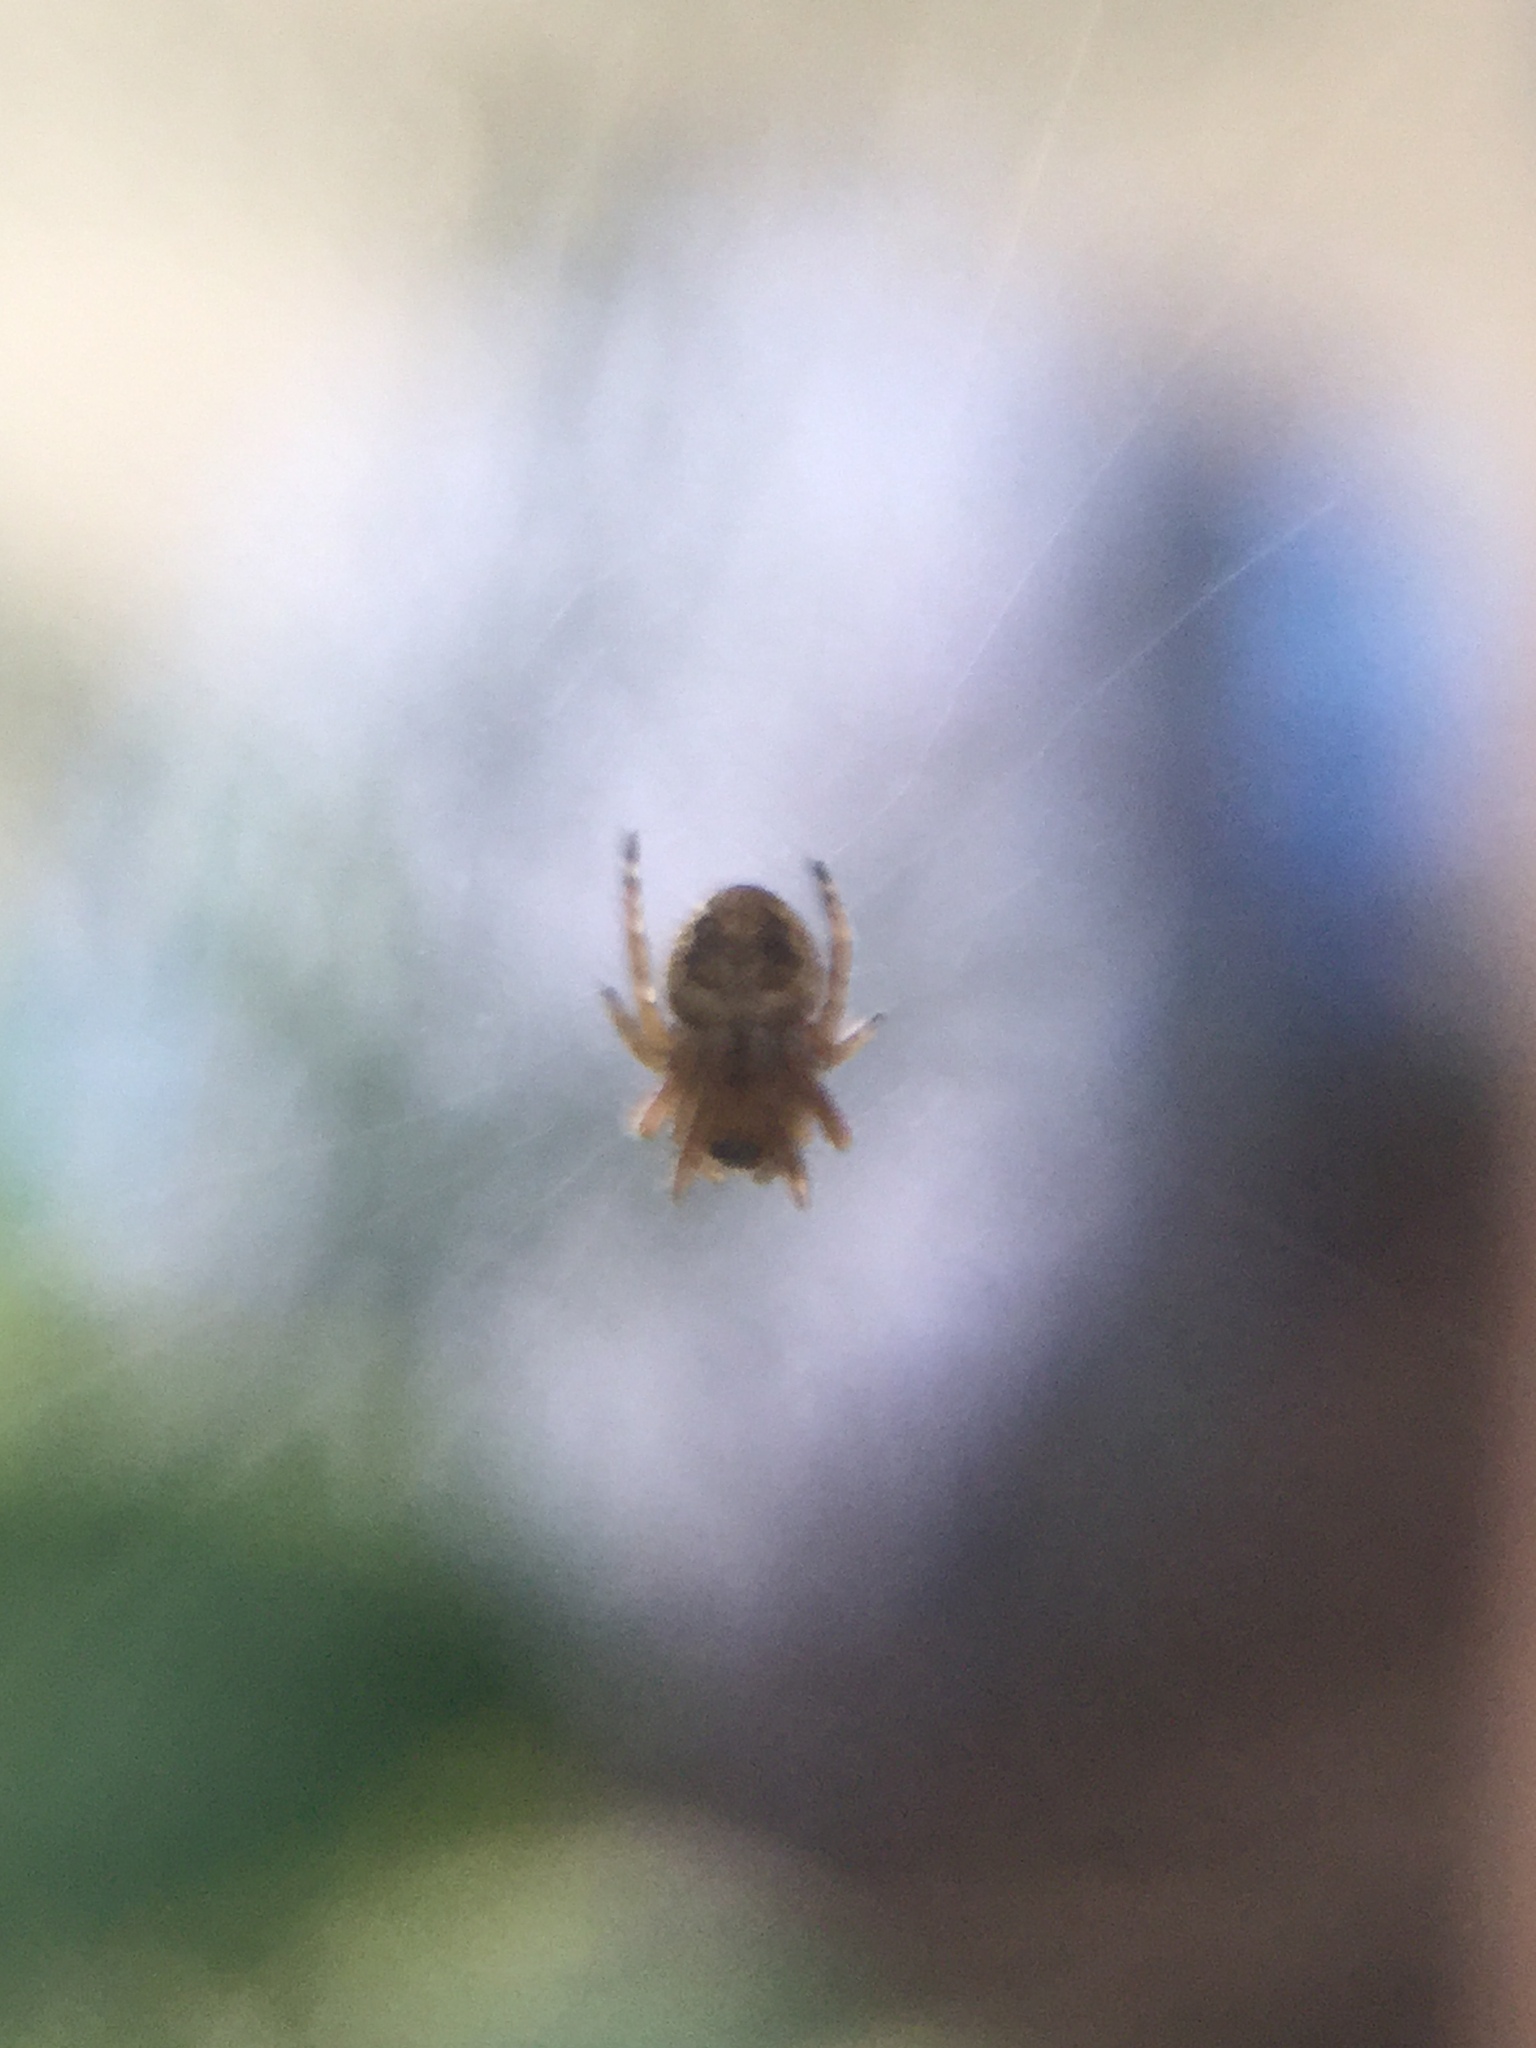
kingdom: Animalia
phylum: Arthropoda
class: Arachnida
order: Araneae
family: Araneidae
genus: Eustala
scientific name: Eustala
